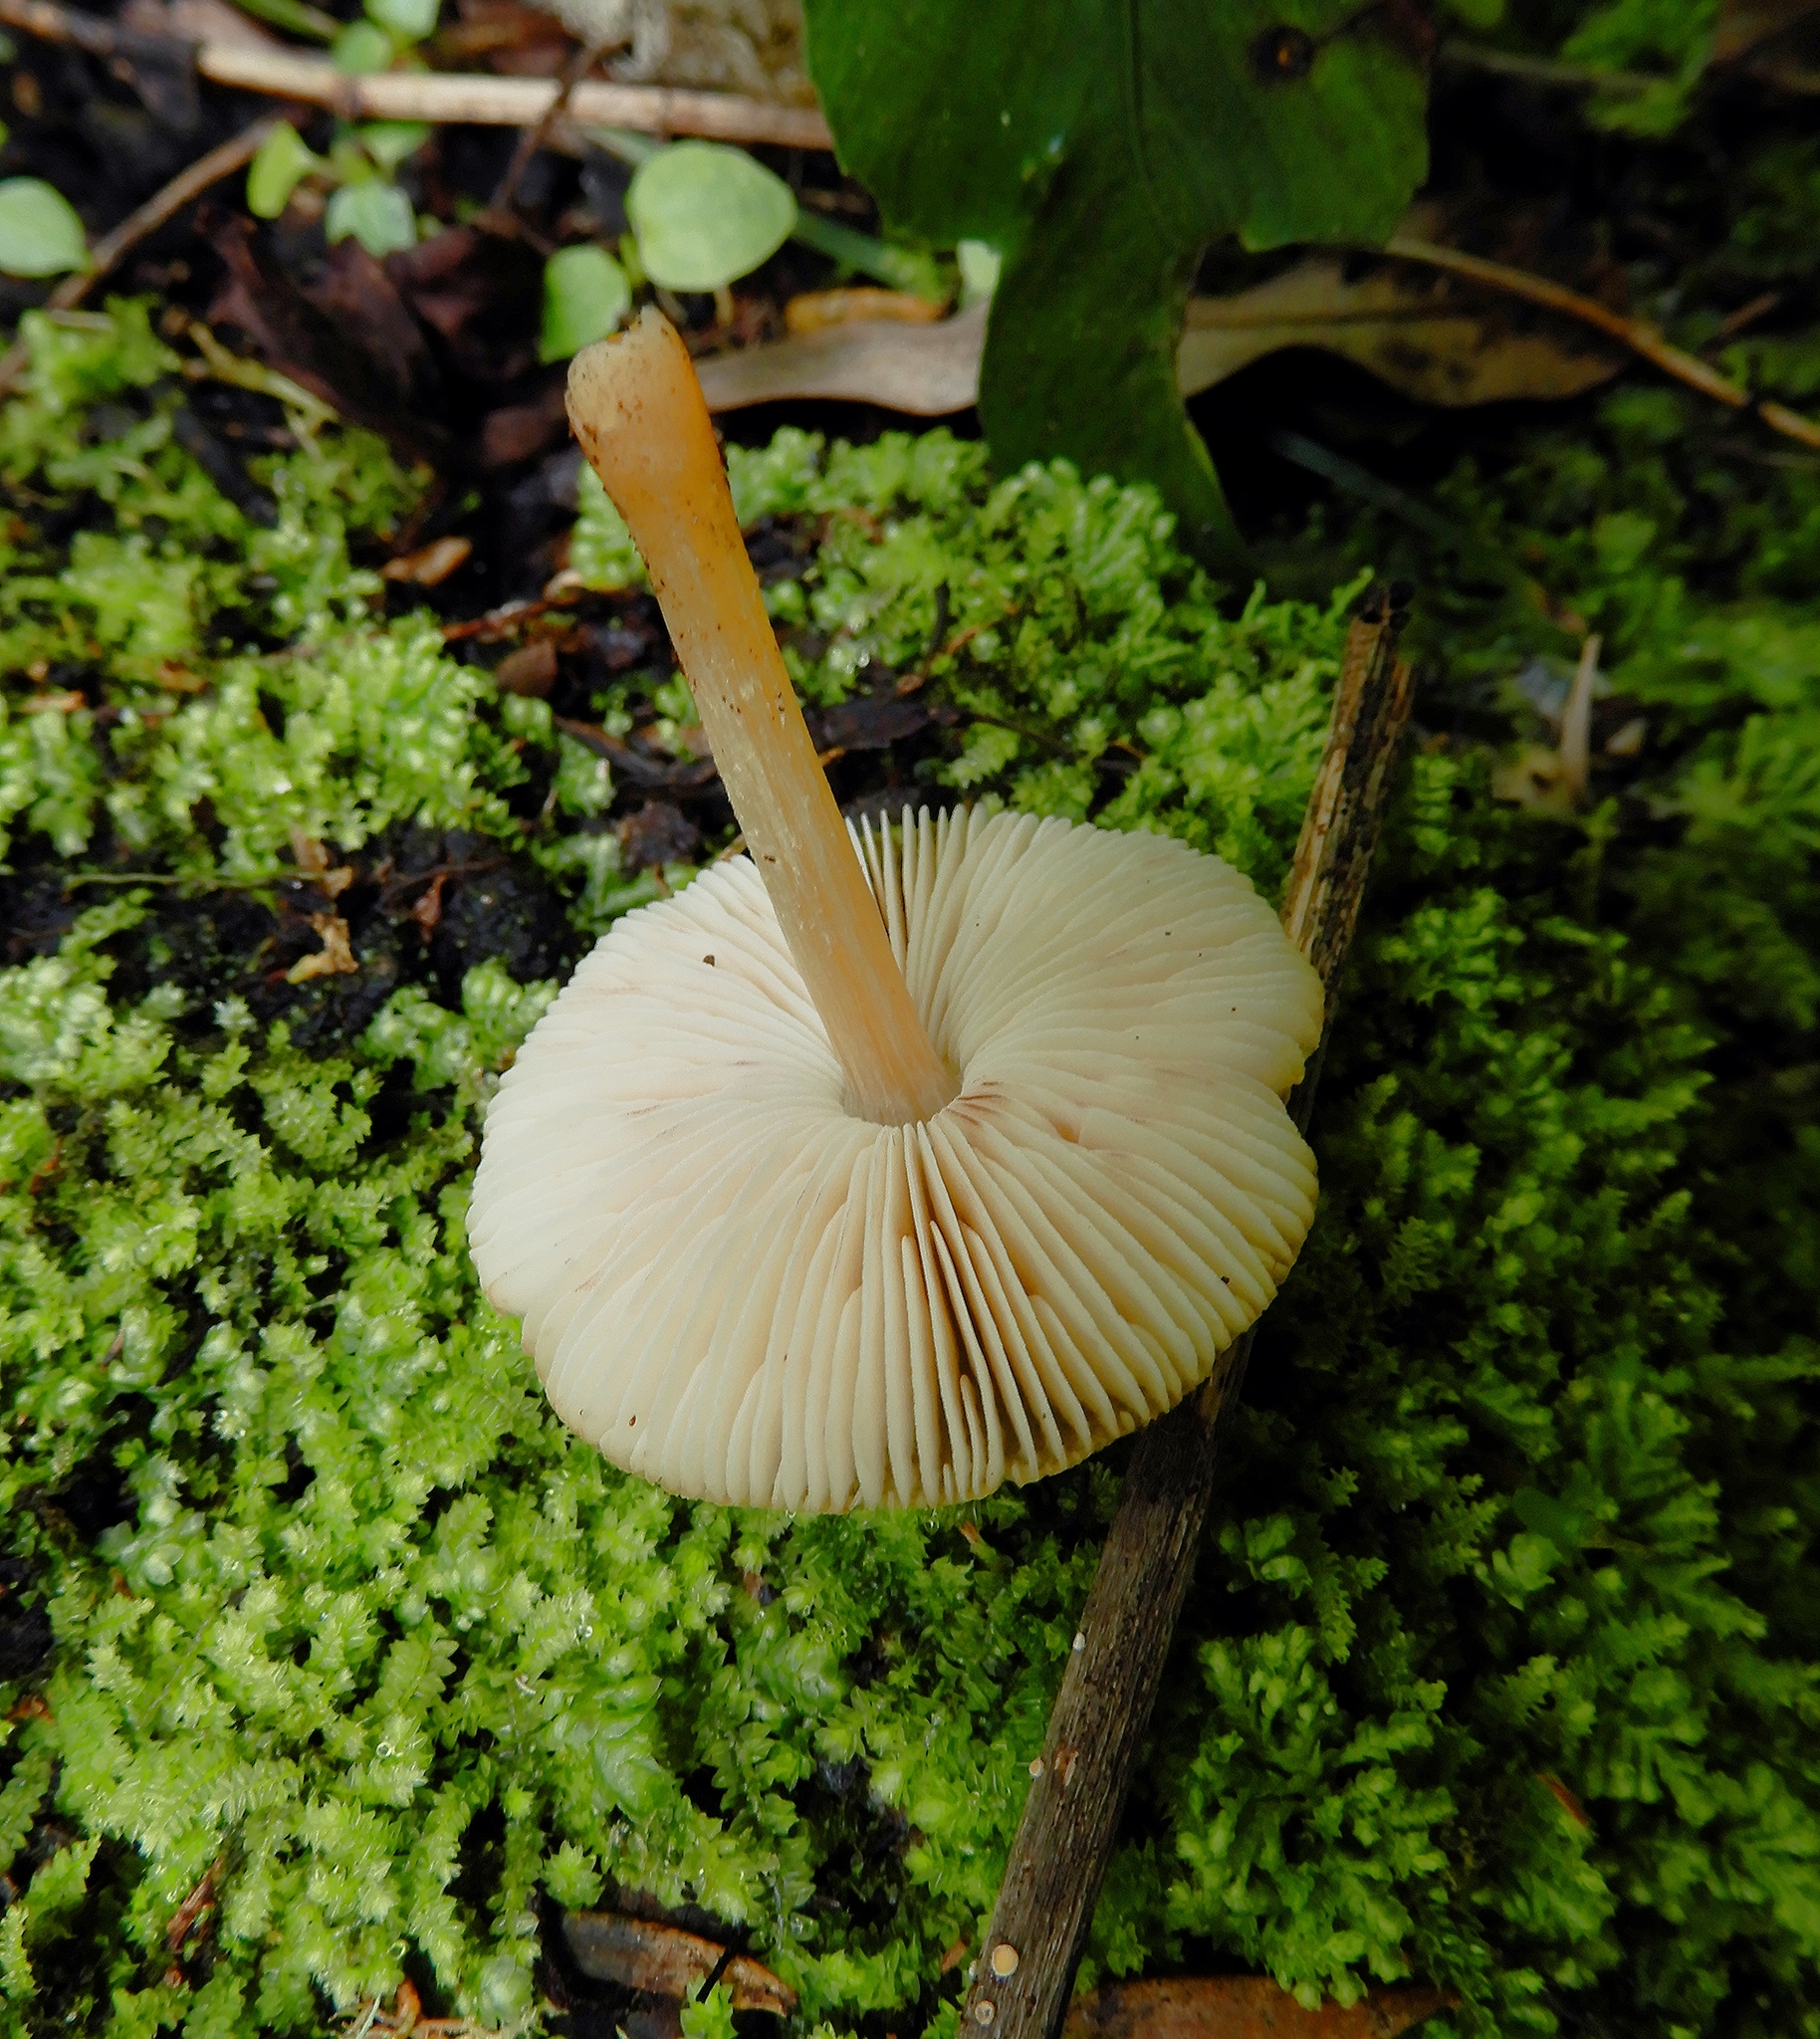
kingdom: Fungi
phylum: Basidiomycota
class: Agaricomycetes
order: Agaricales
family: Pluteaceae
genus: Pluteus
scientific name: Pluteus pauperculus
